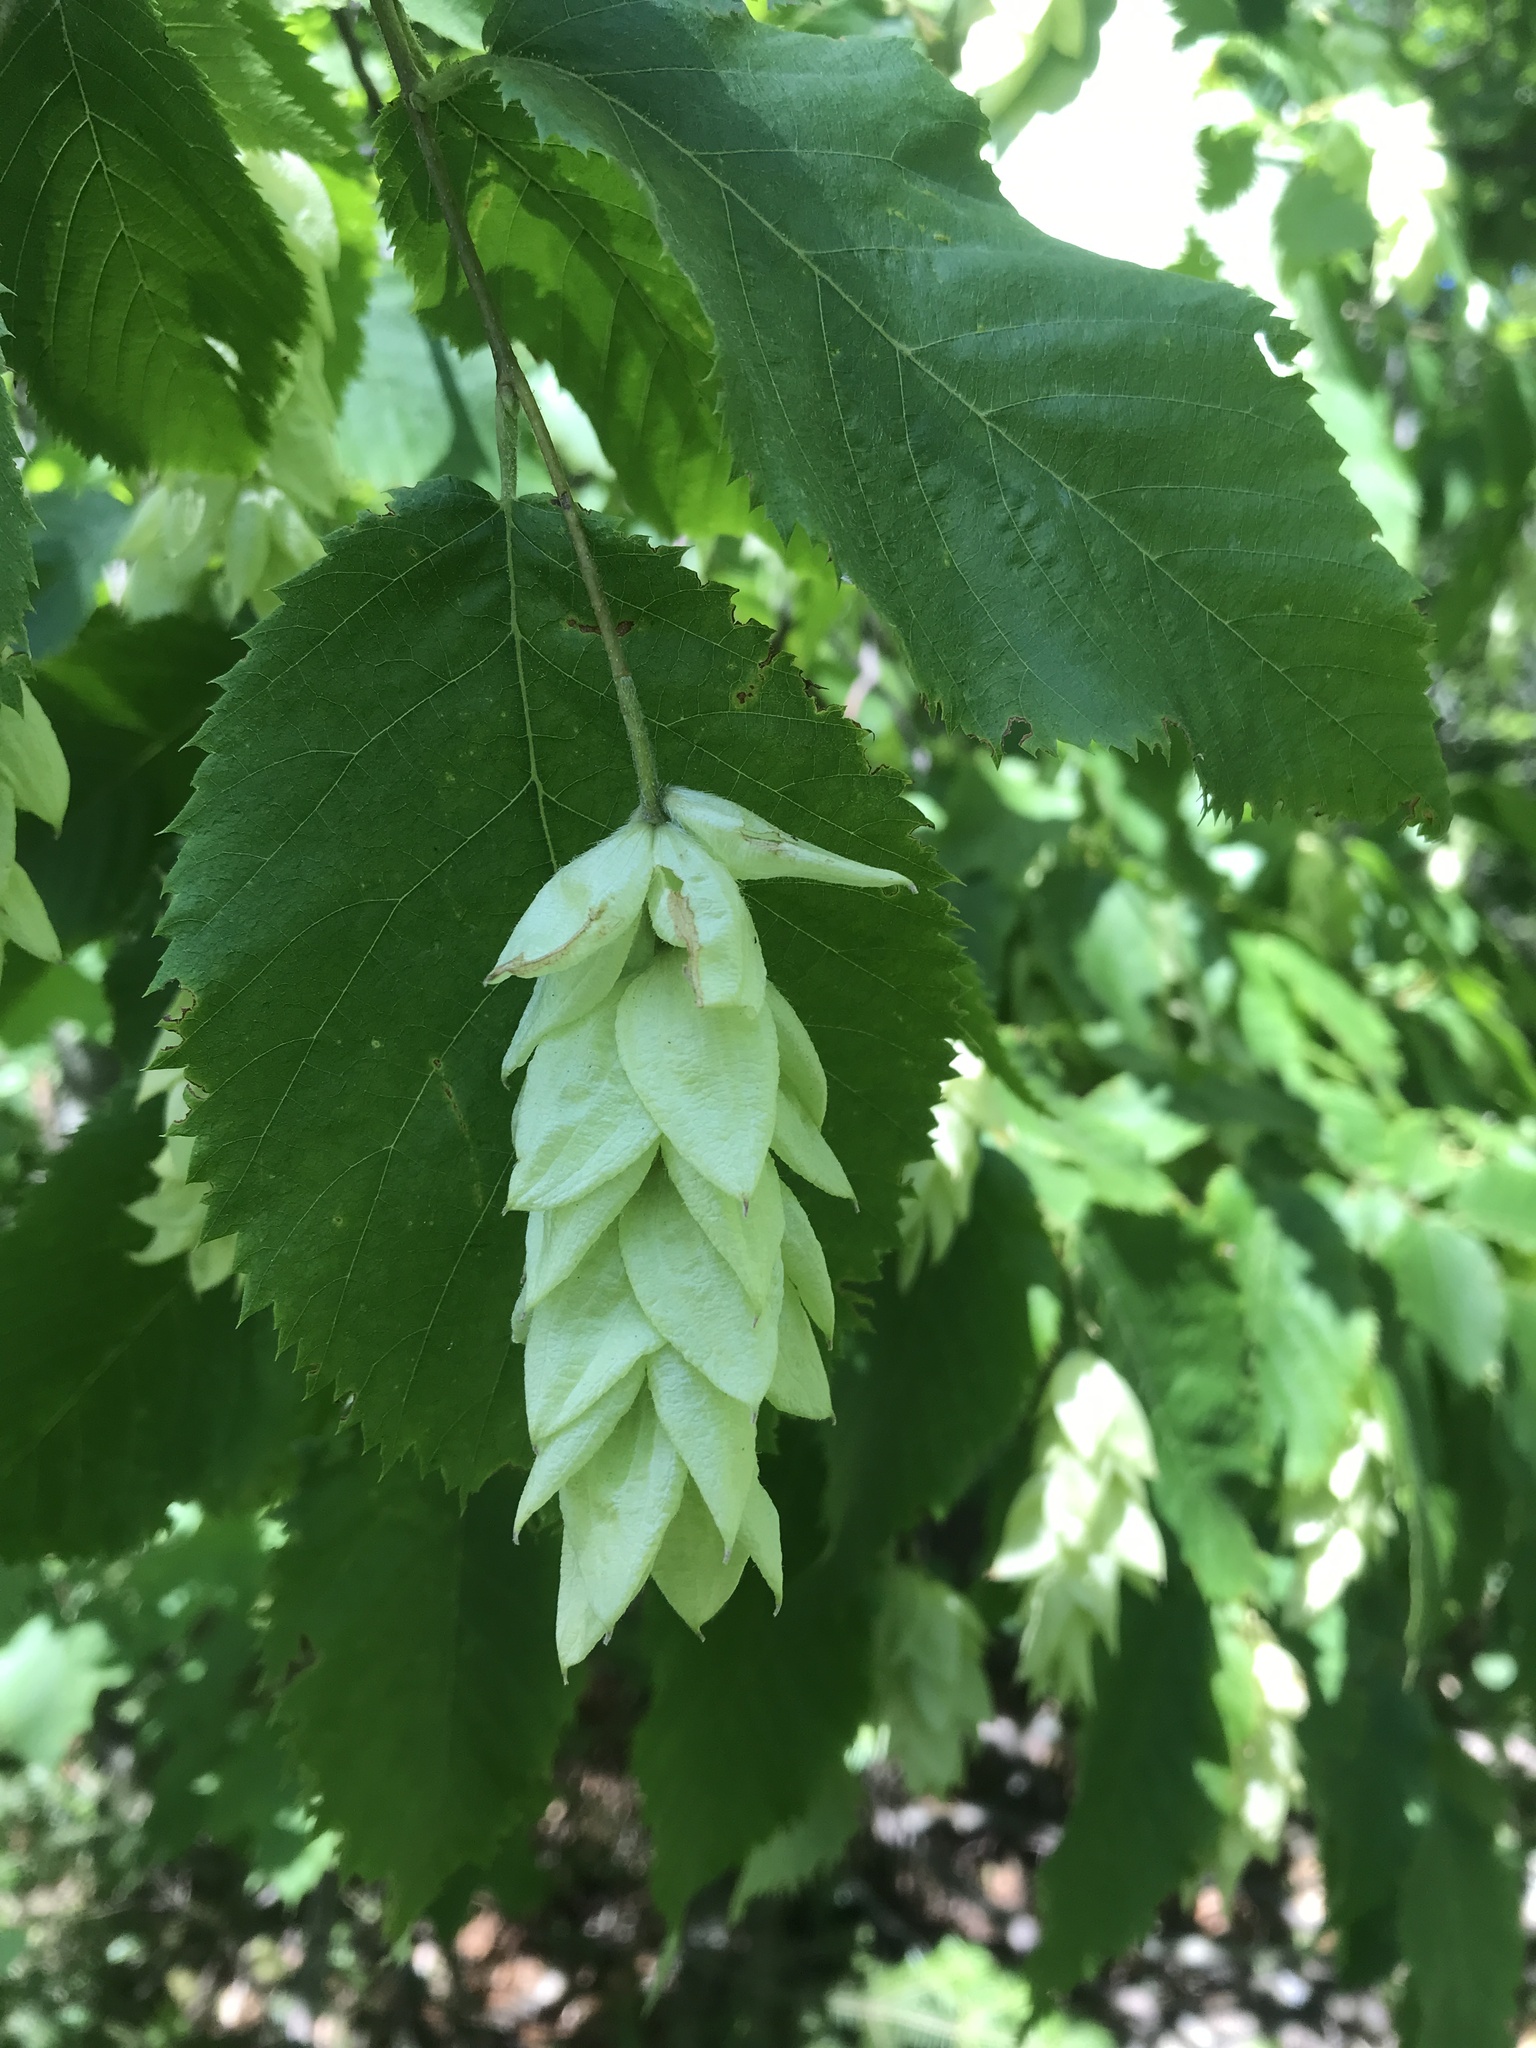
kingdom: Plantae
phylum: Tracheophyta
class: Magnoliopsida
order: Fagales
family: Betulaceae
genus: Ostrya
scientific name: Ostrya virginiana
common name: Ironwood
